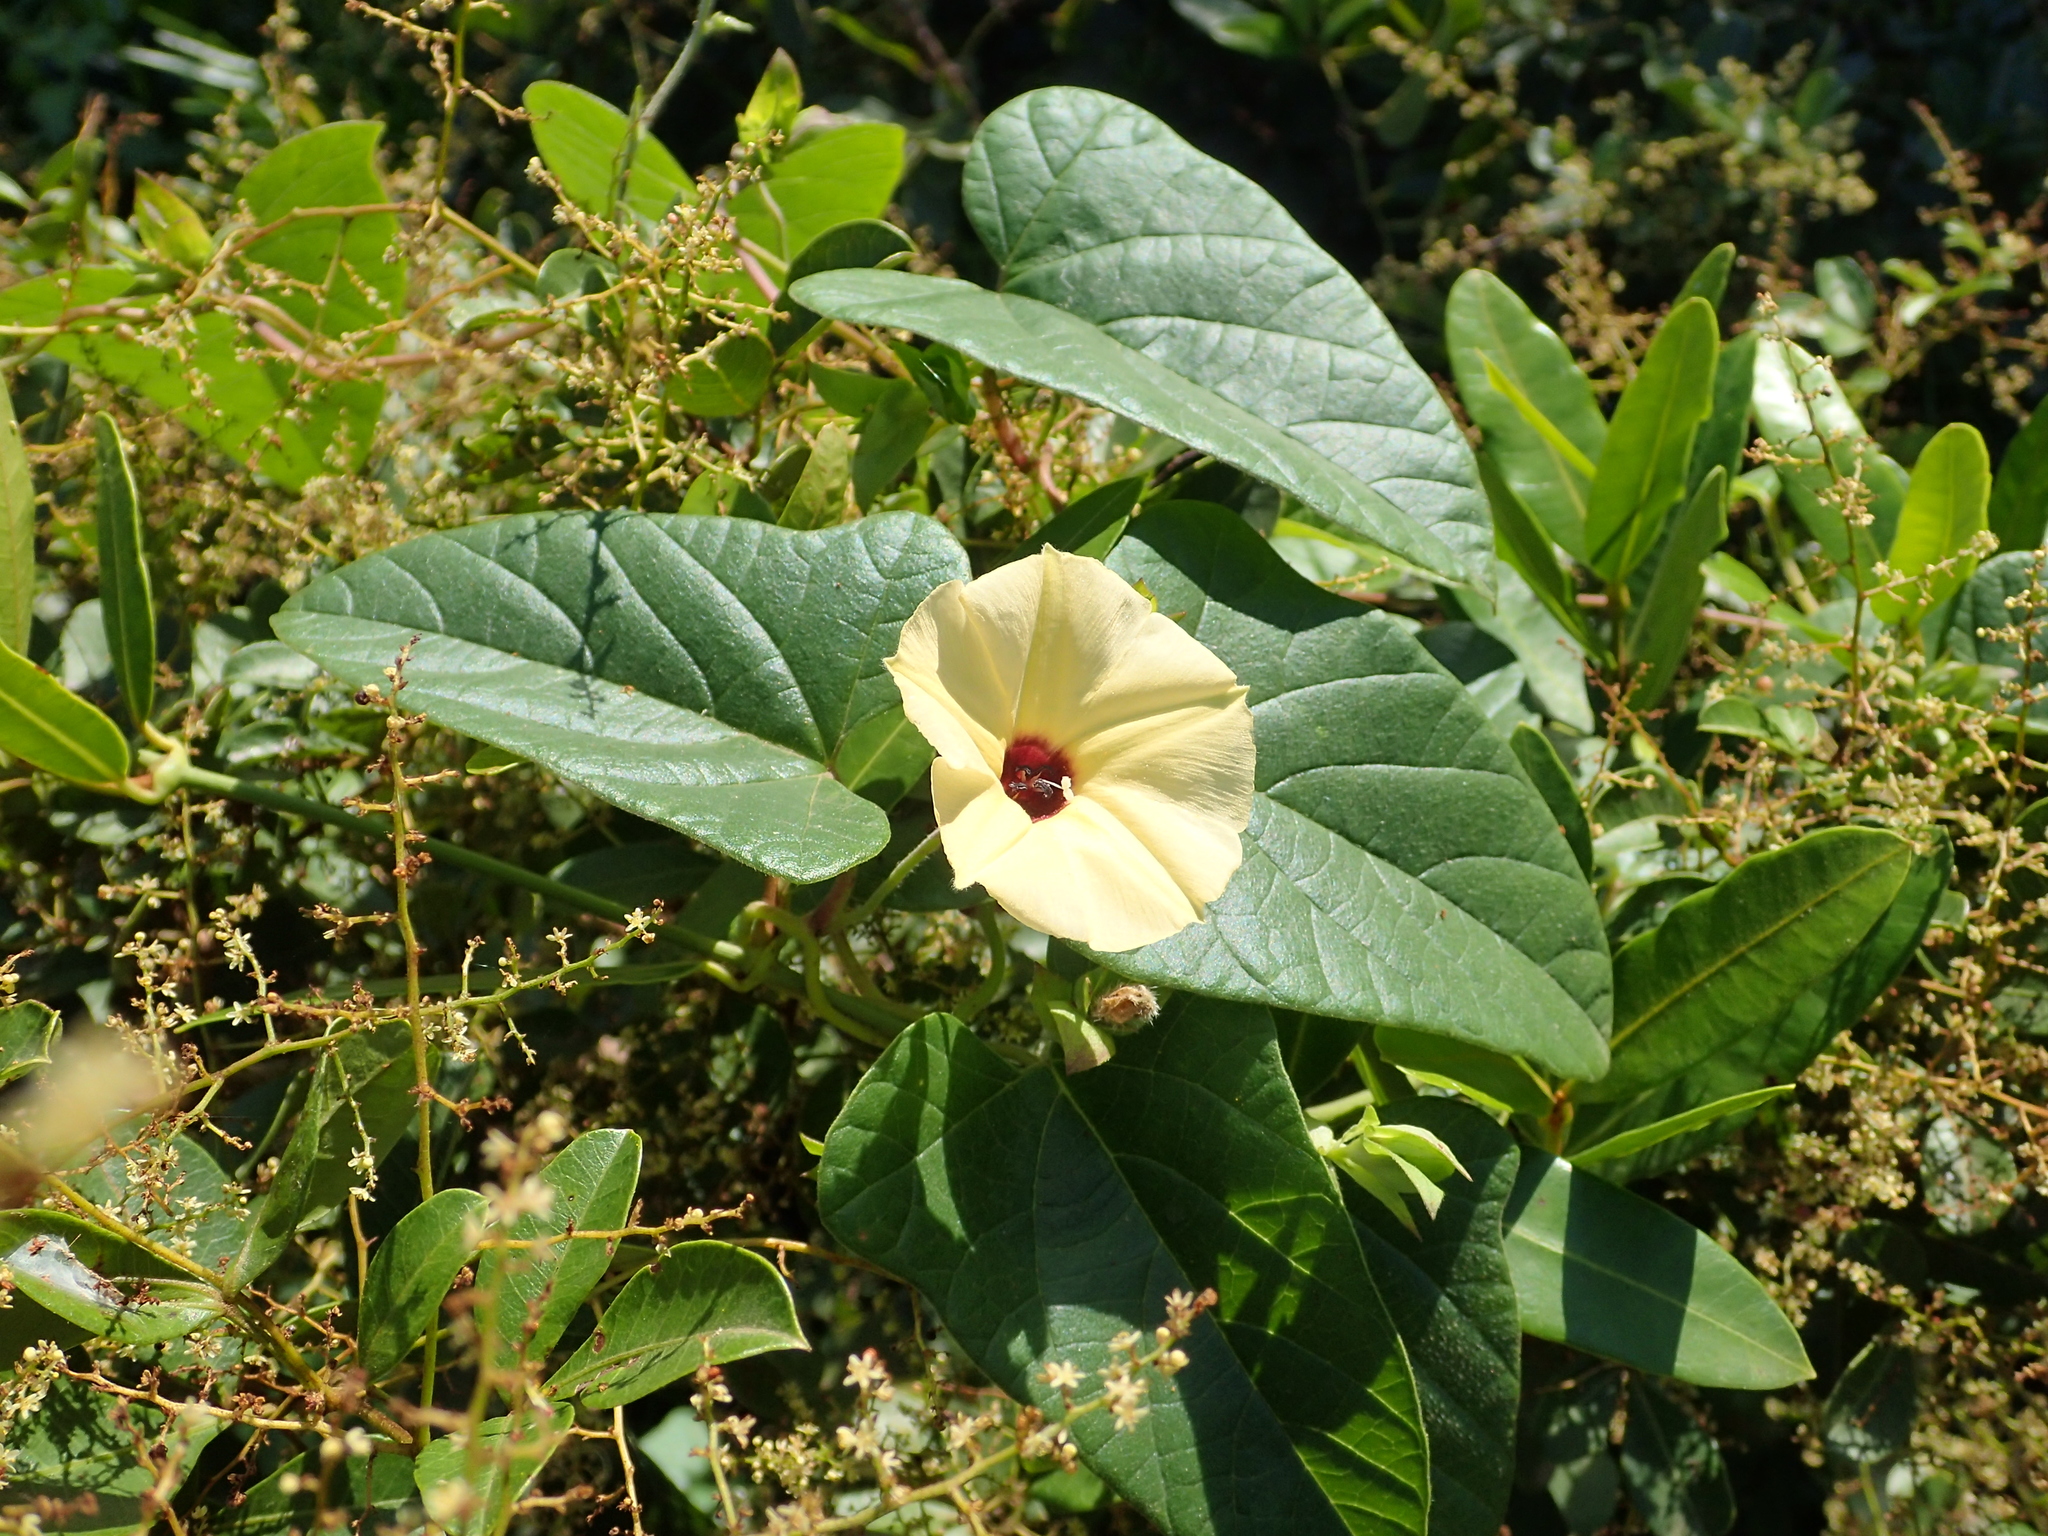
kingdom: Plantae
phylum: Tracheophyta
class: Magnoliopsida
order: Solanales
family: Convolvulaceae
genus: Hewittia
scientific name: Hewittia malabarica
